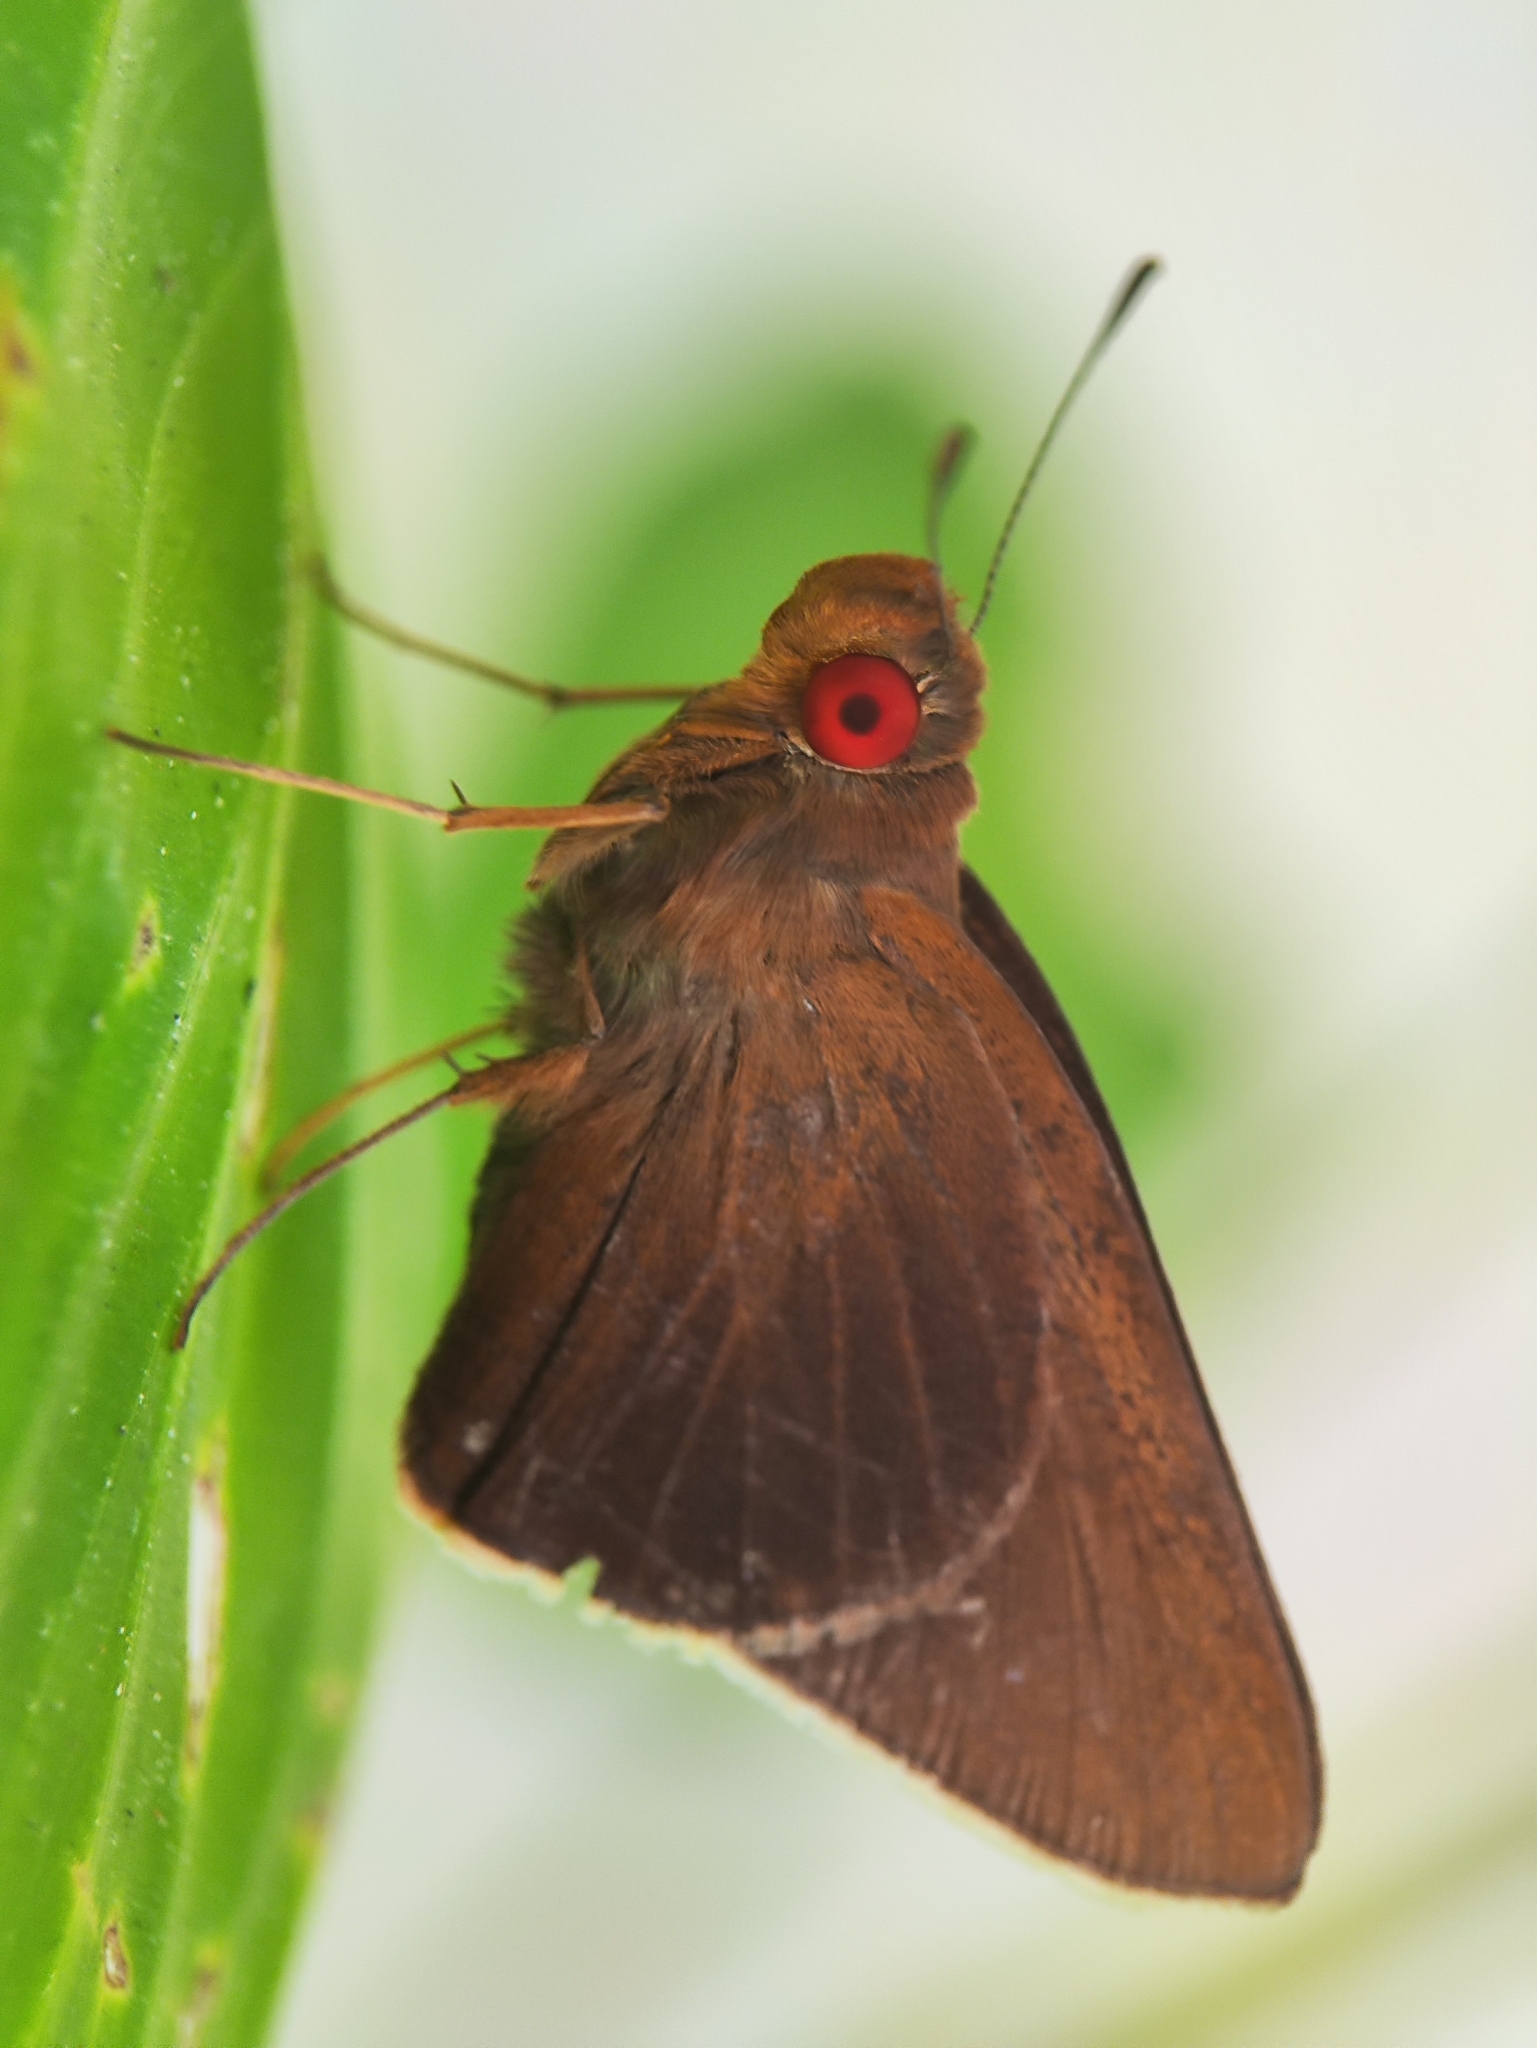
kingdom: Animalia
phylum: Arthropoda
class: Insecta
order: Lepidoptera
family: Hesperiidae
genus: Matapa
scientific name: Matapa aria
